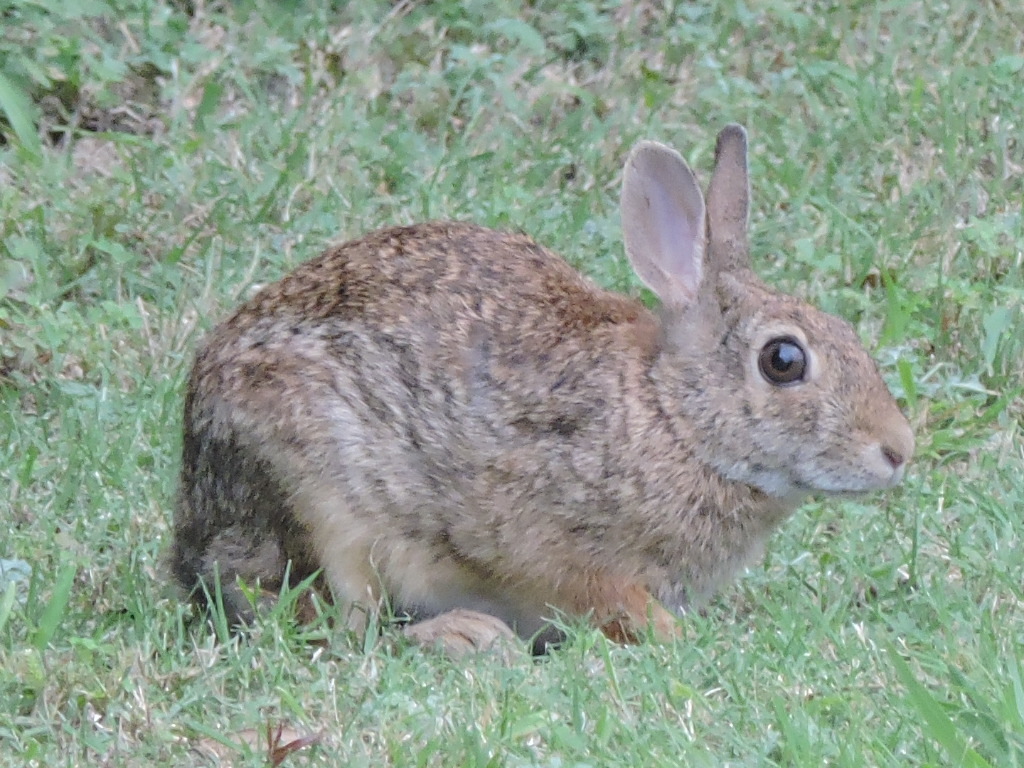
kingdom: Animalia
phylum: Chordata
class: Mammalia
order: Lagomorpha
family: Leporidae
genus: Sylvilagus
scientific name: Sylvilagus floridanus
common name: Eastern cottontail
